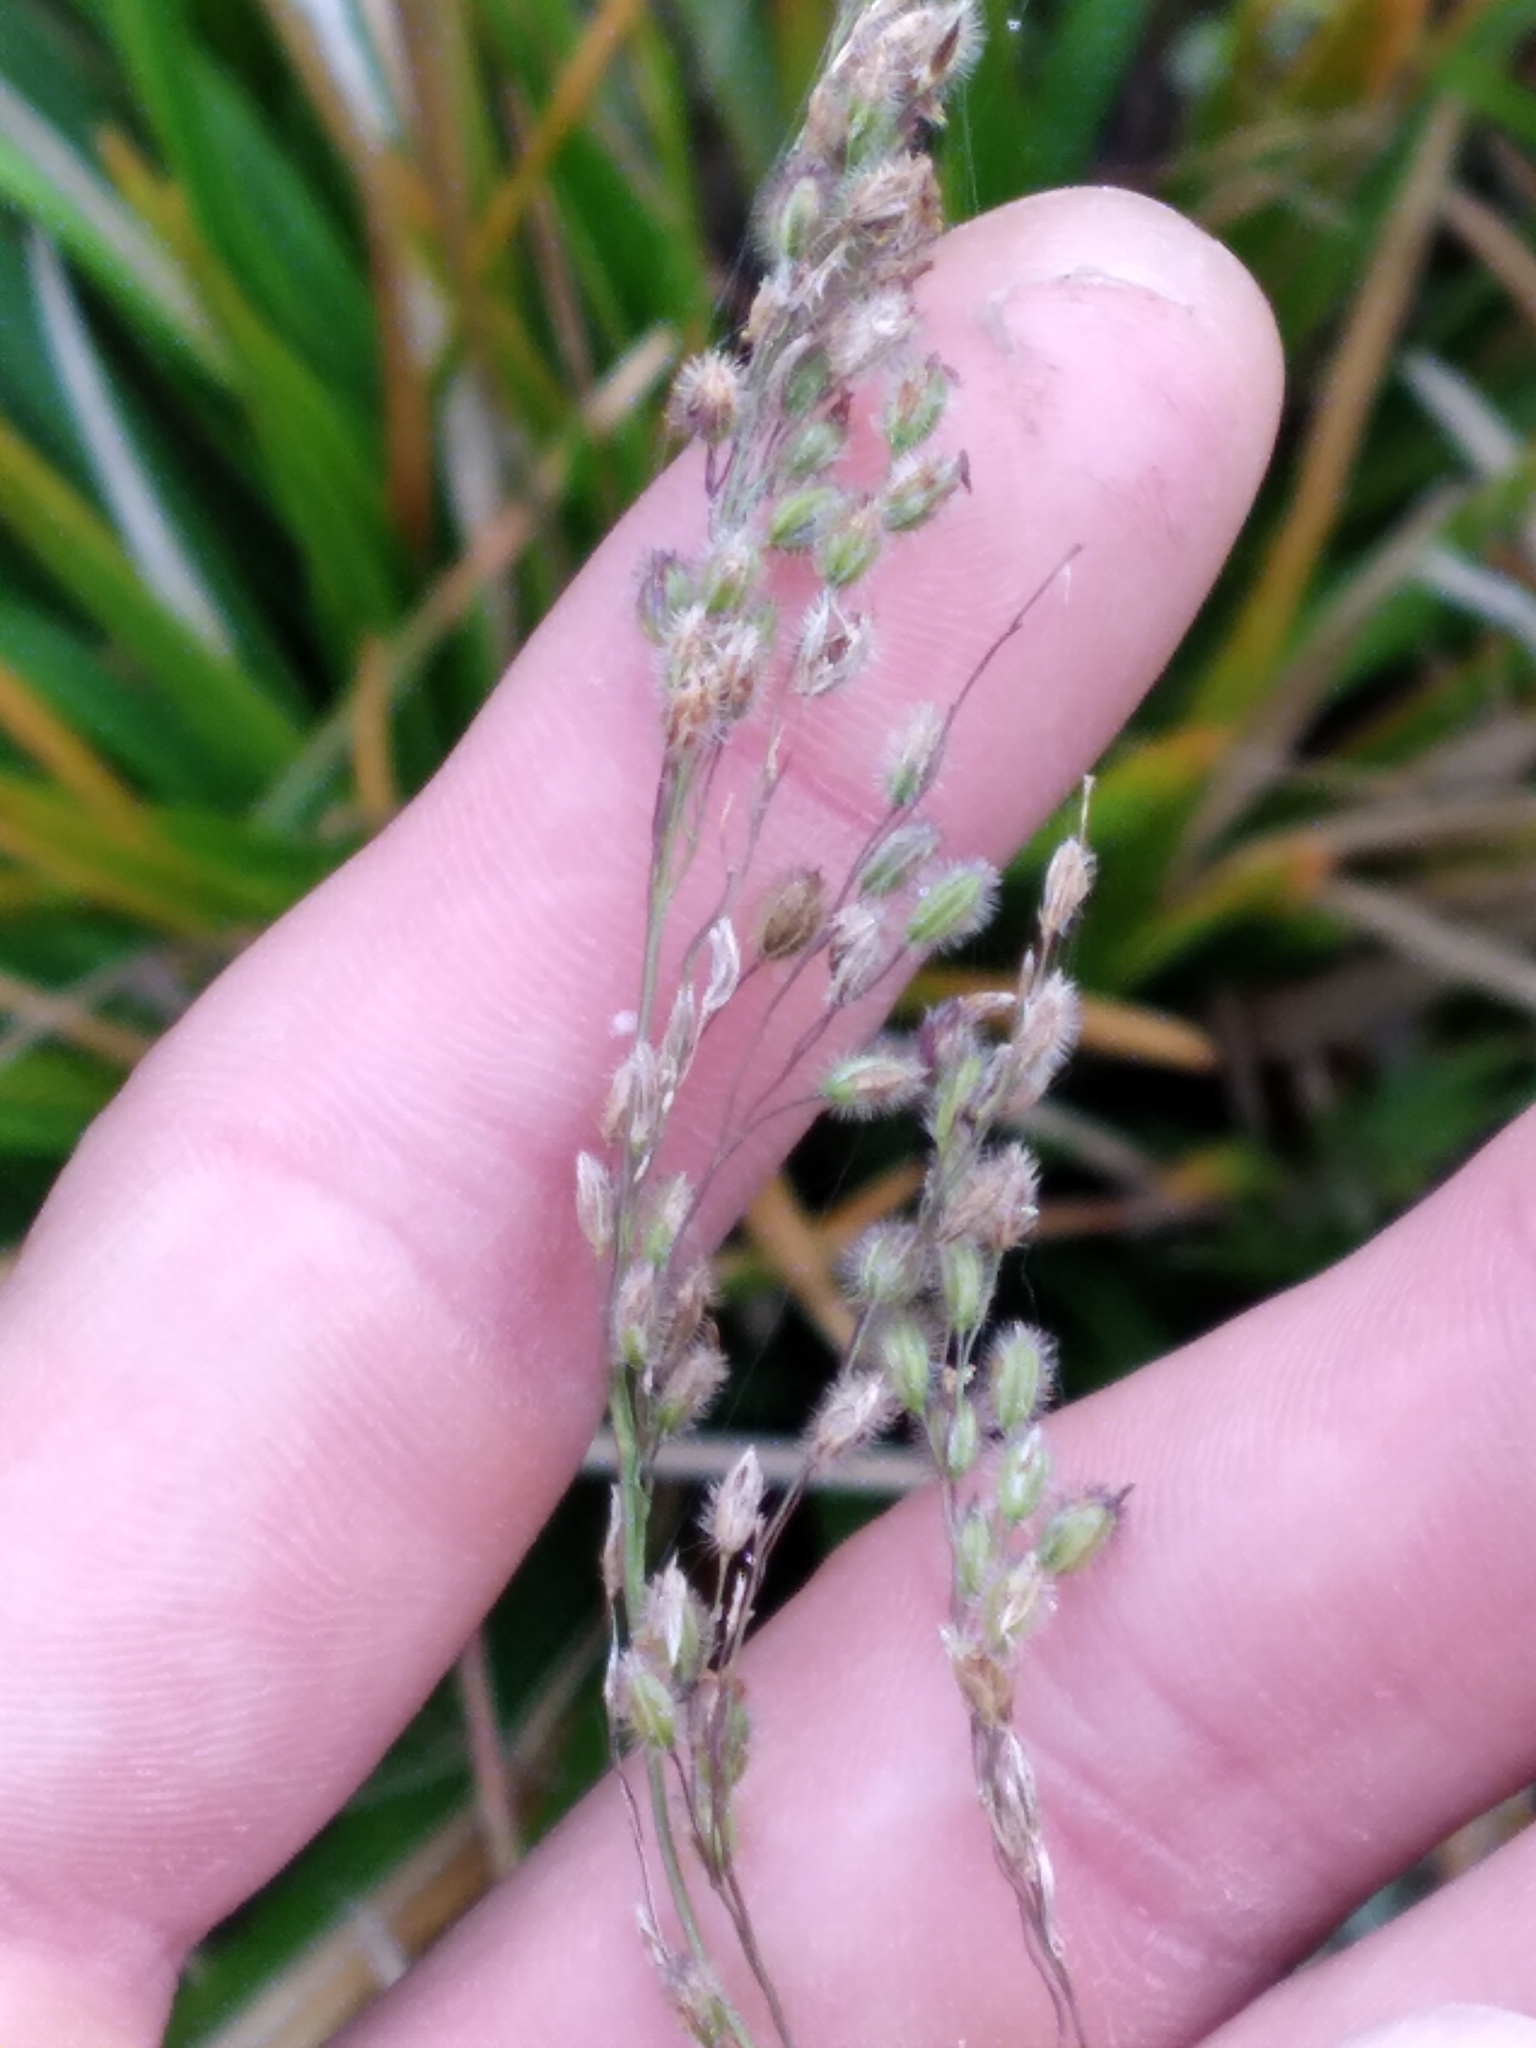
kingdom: Plantae
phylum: Tracheophyta
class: Liliopsida
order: Poales
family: Poaceae
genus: Anthenantia
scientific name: Anthenantia rufa
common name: Purple silkyscale
